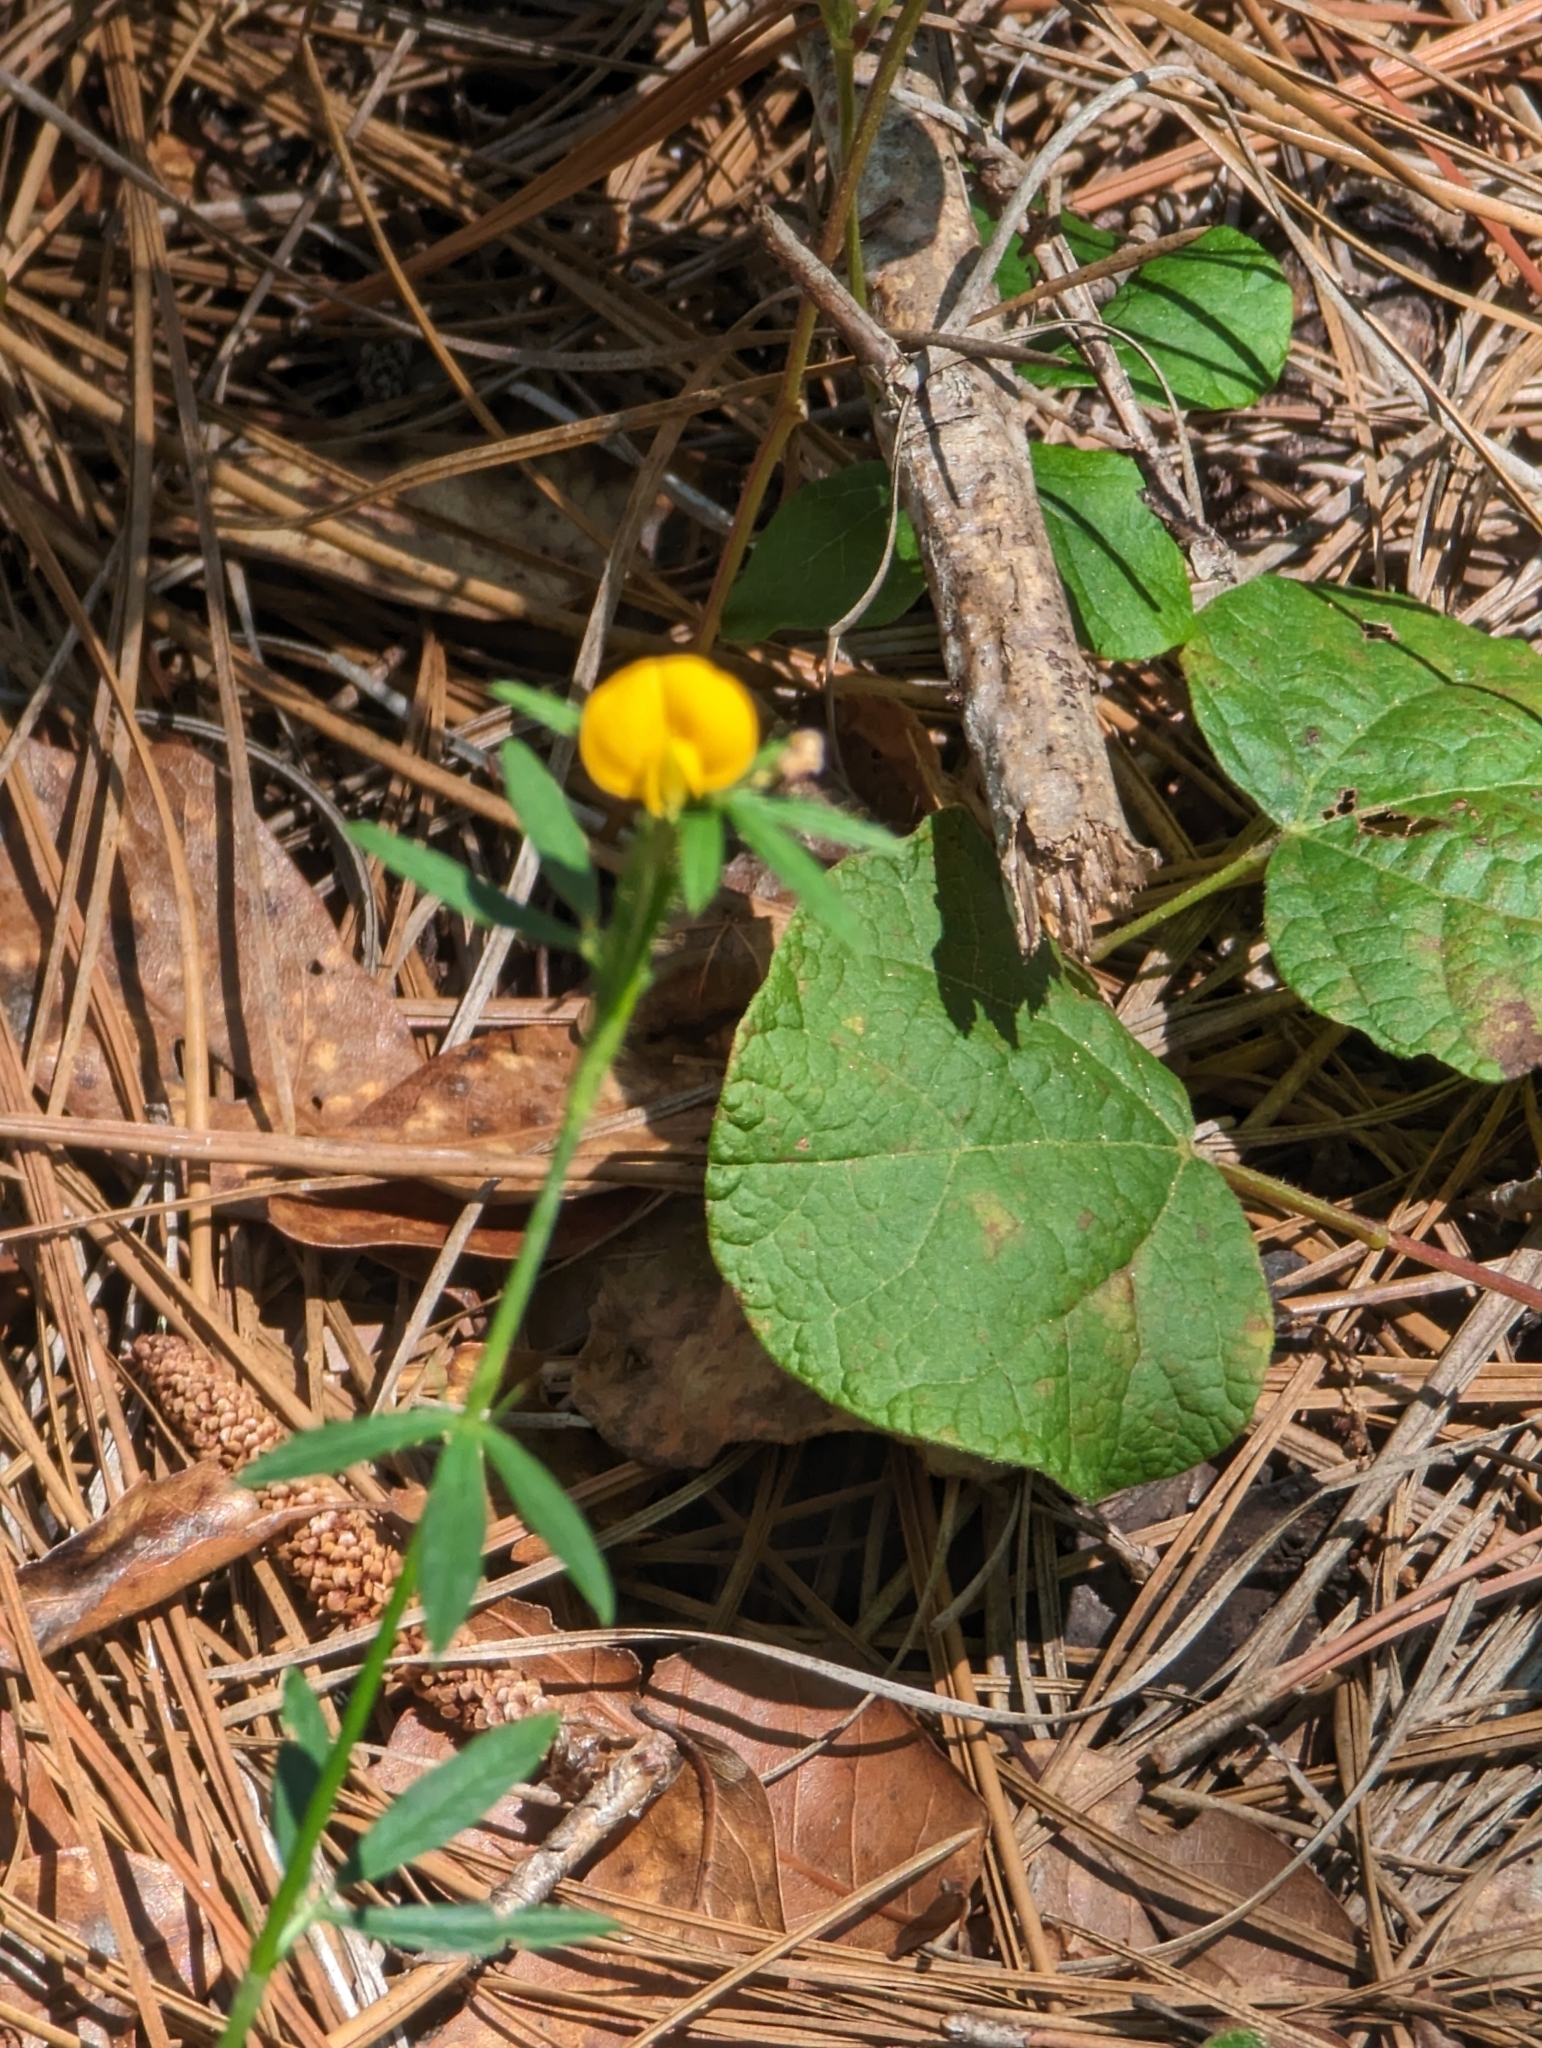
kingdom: Plantae
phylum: Tracheophyta
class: Magnoliopsida
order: Fabales
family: Fabaceae
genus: Stylosanthes
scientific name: Stylosanthes biflora
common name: Two-flower pencil-flower
